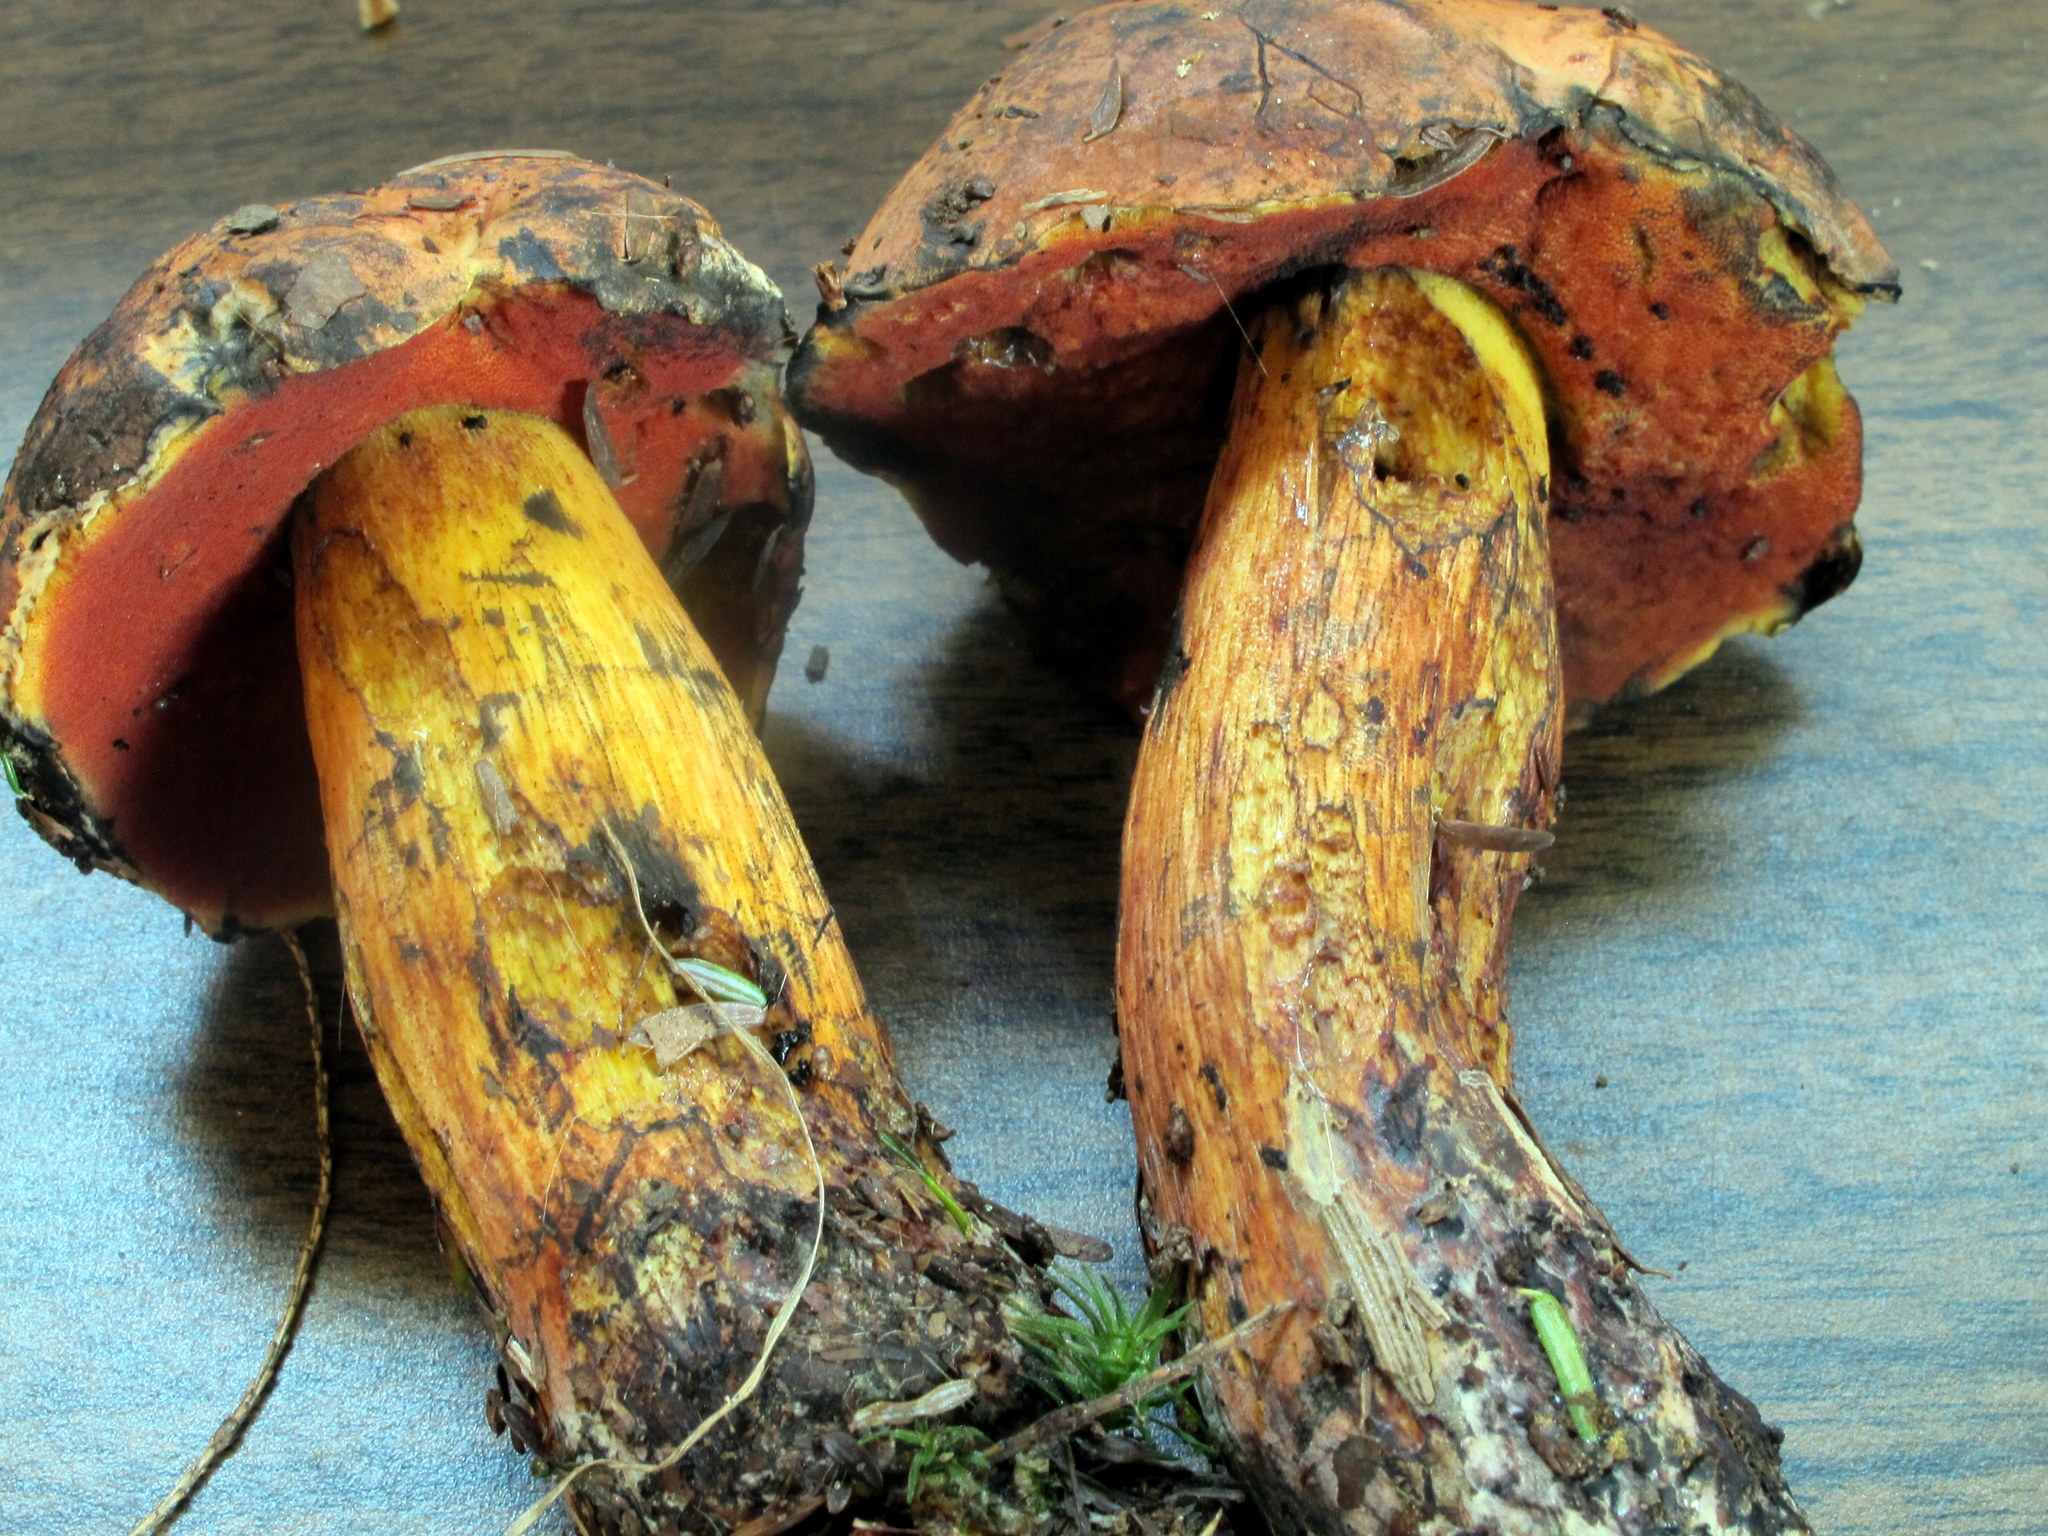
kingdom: Fungi
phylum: Basidiomycota
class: Agaricomycetes
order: Boletales
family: Boletaceae
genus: Boletus
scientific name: Boletus subvelutipes
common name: Red-mouth bolete
